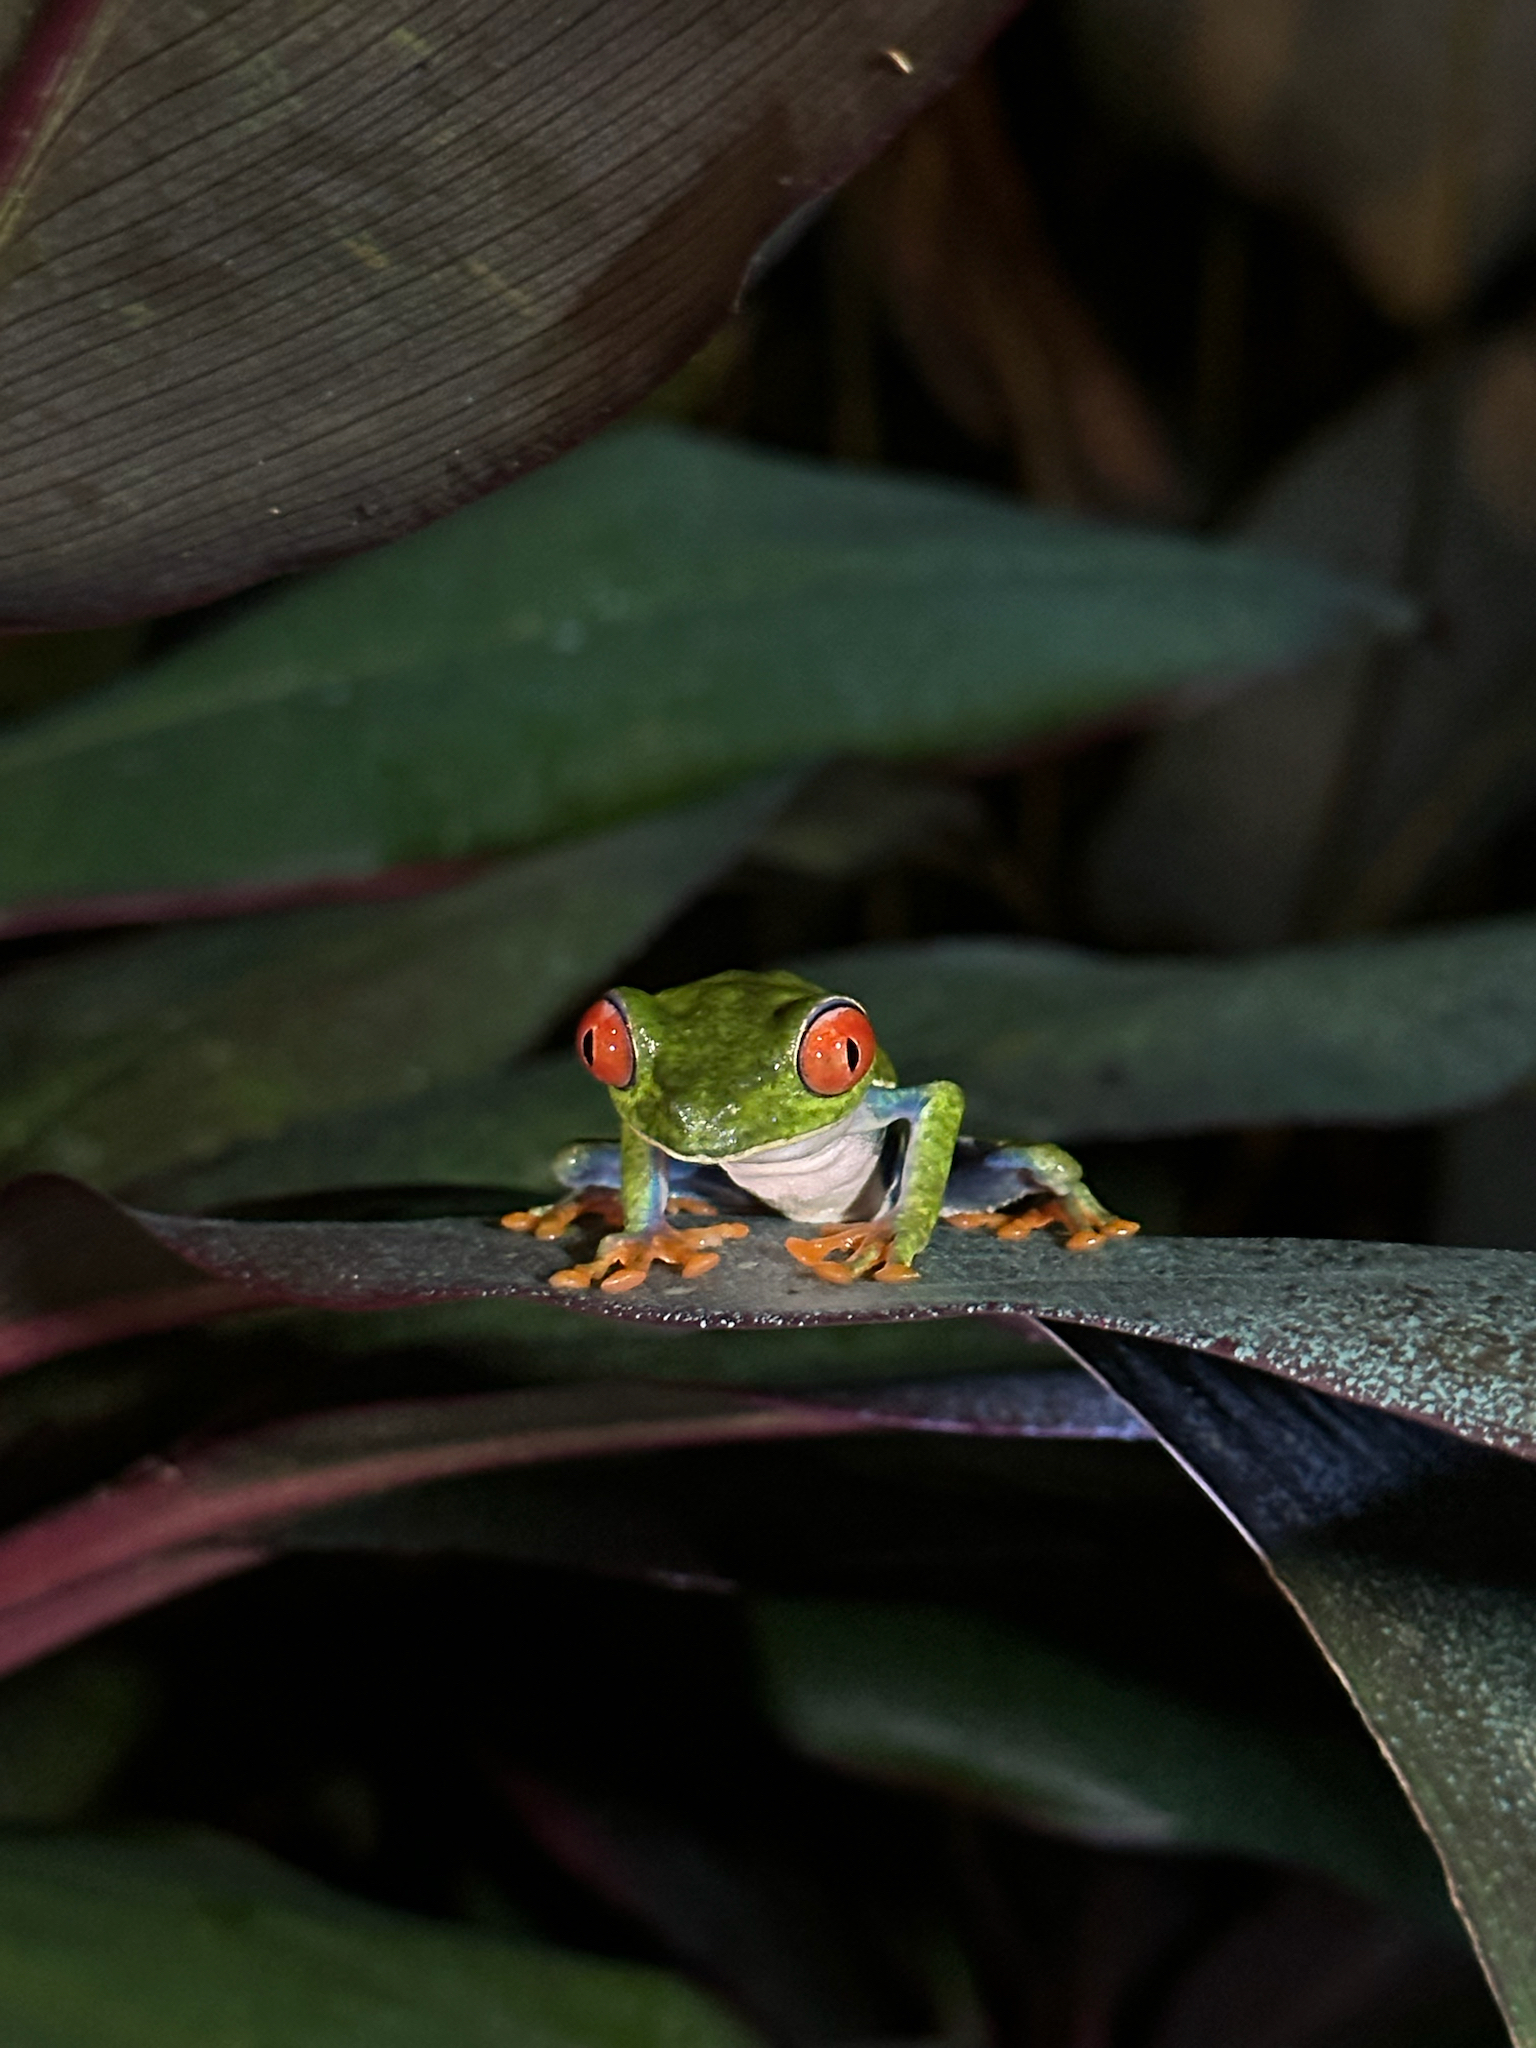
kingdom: Animalia
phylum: Chordata
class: Amphibia
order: Anura
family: Phyllomedusidae
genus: Agalychnis
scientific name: Agalychnis callidryas
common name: Red-eyed treefrog
